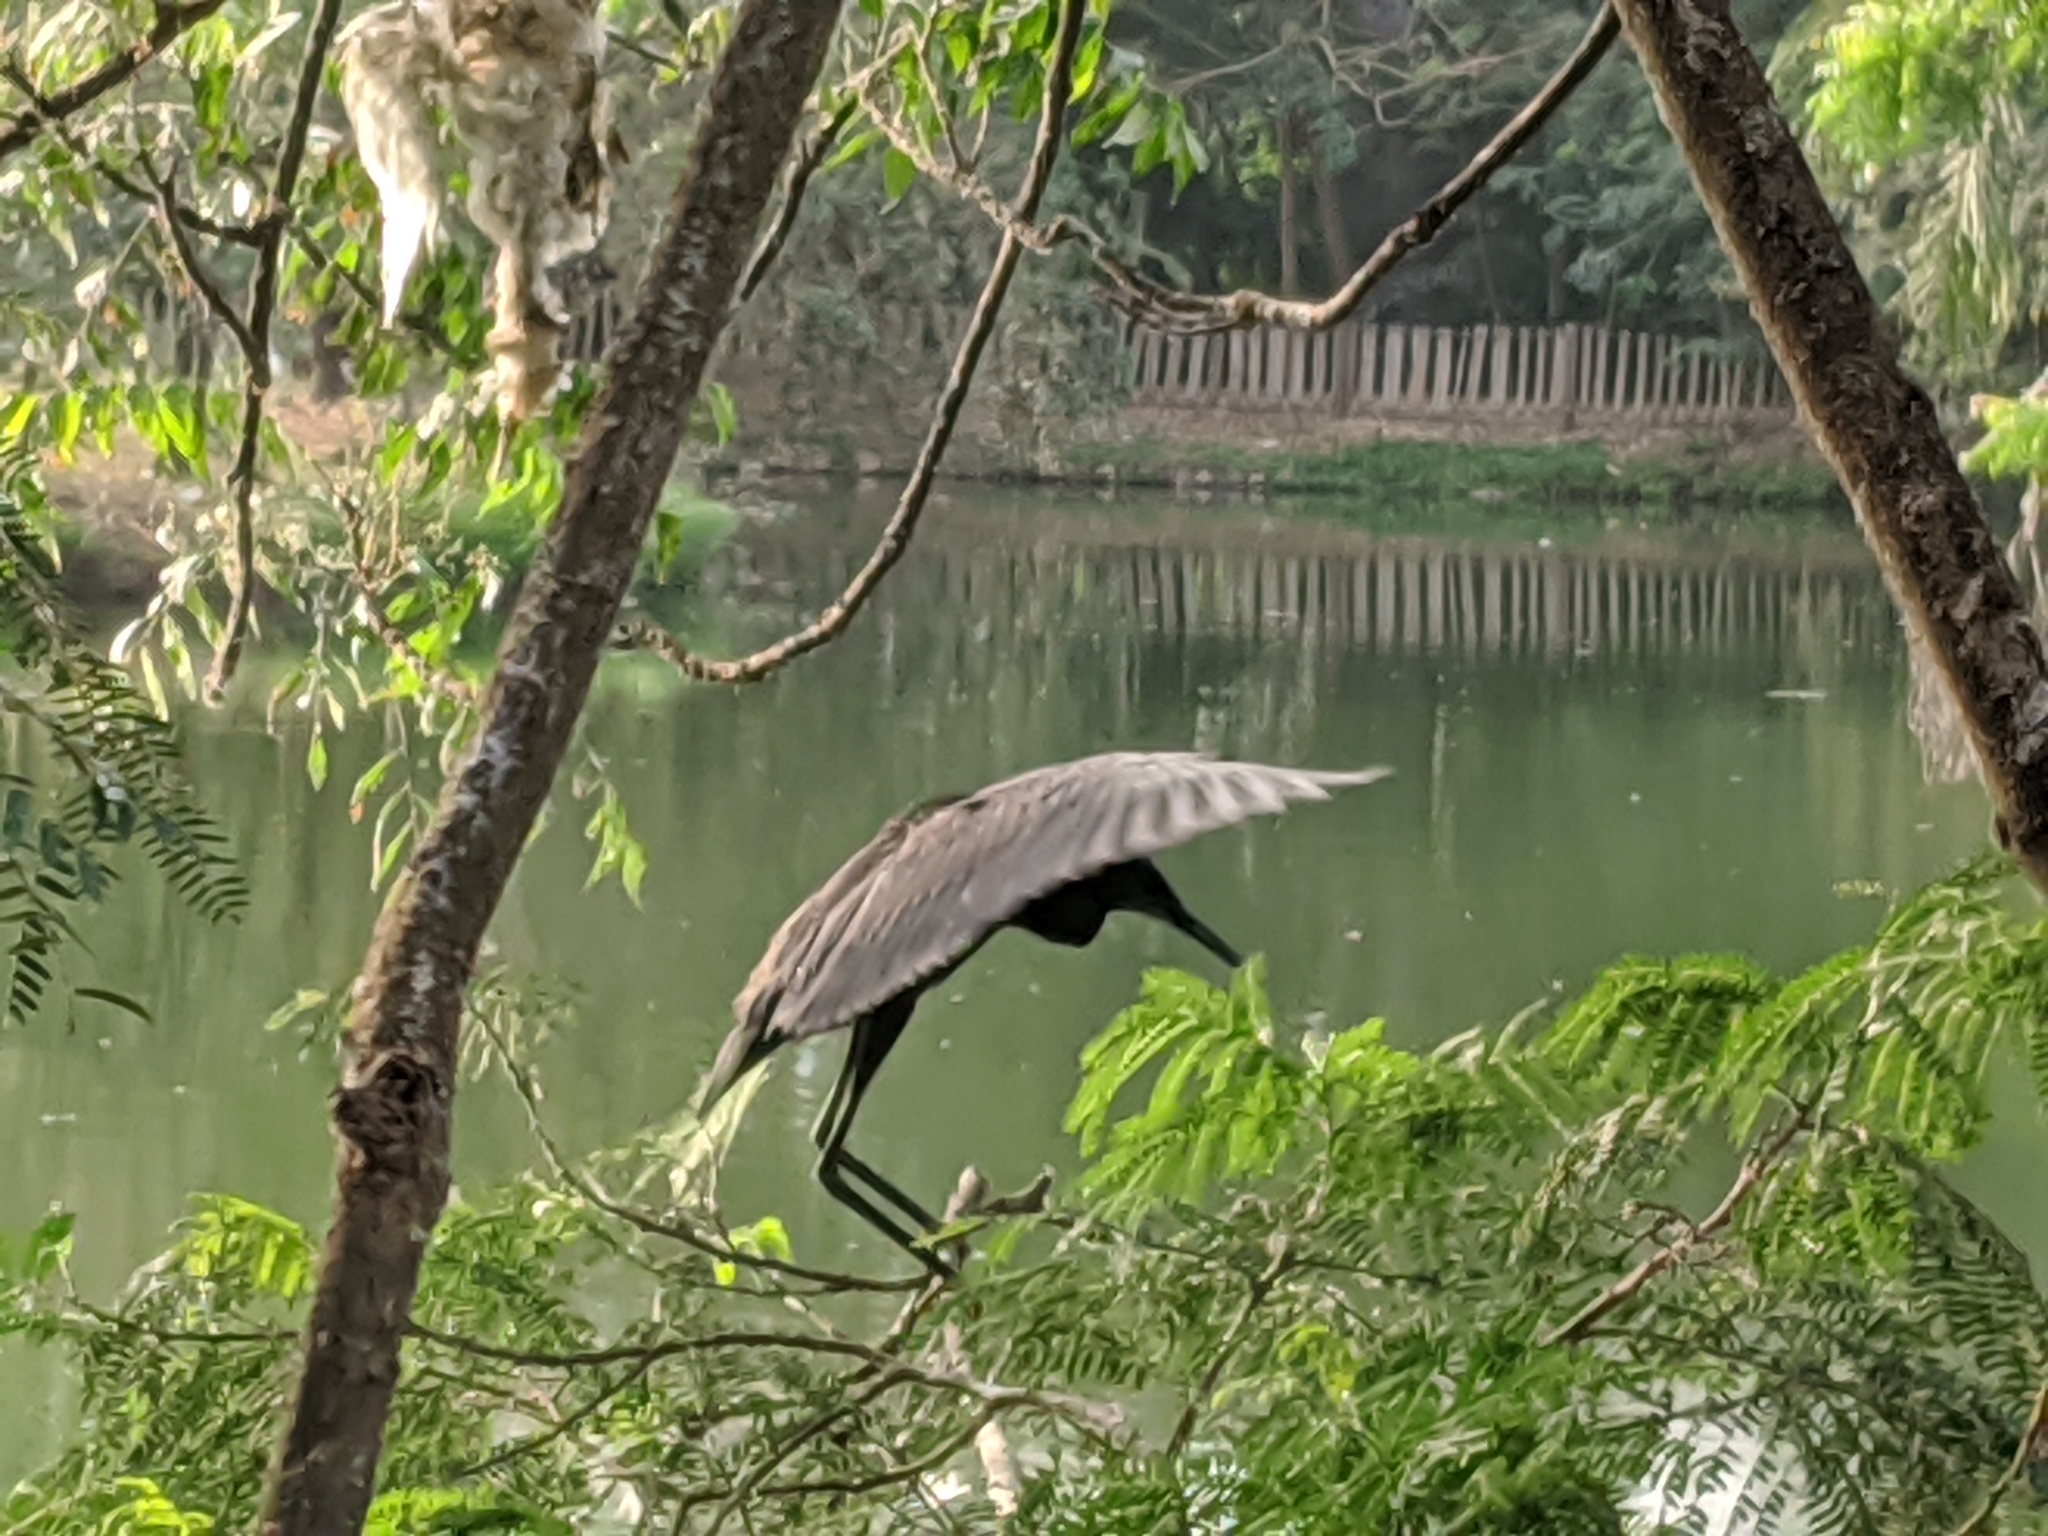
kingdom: Animalia
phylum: Chordata
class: Aves
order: Pelecaniformes
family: Ardeidae
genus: Egretta
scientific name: Egretta ardesiaca
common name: Black heron
